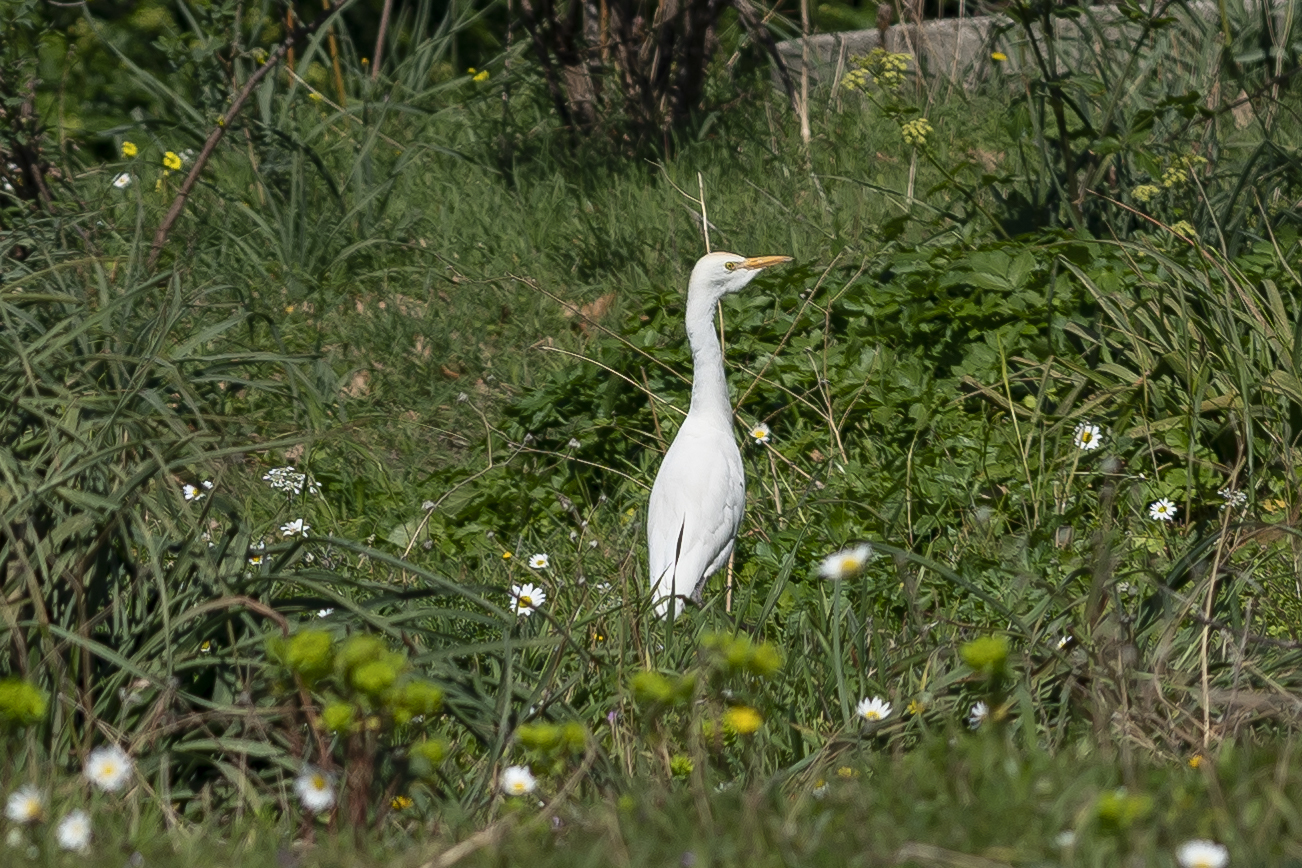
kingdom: Animalia
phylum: Chordata
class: Aves
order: Pelecaniformes
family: Ardeidae
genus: Bubulcus
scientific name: Bubulcus ibis
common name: Cattle egret
